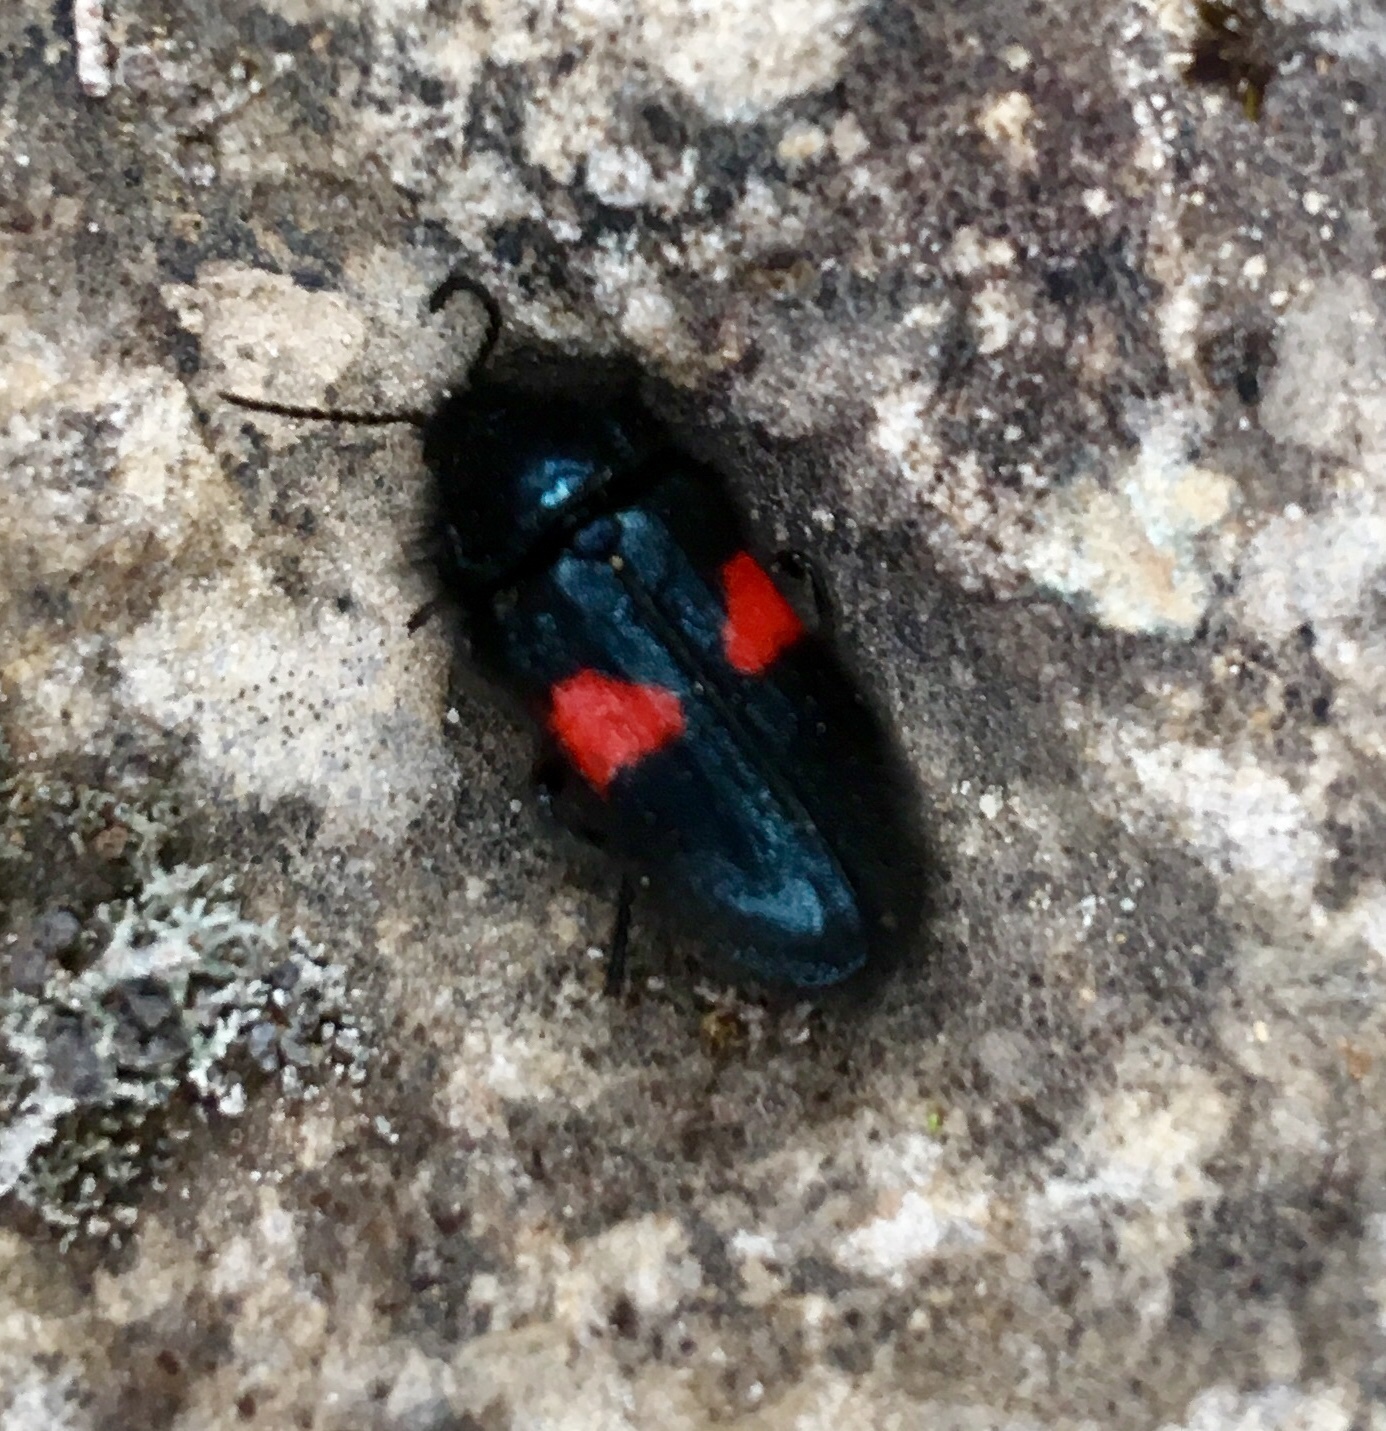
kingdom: Animalia
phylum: Arthropoda
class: Insecta
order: Coleoptera
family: Melyridae
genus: Astylus
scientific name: Astylus
